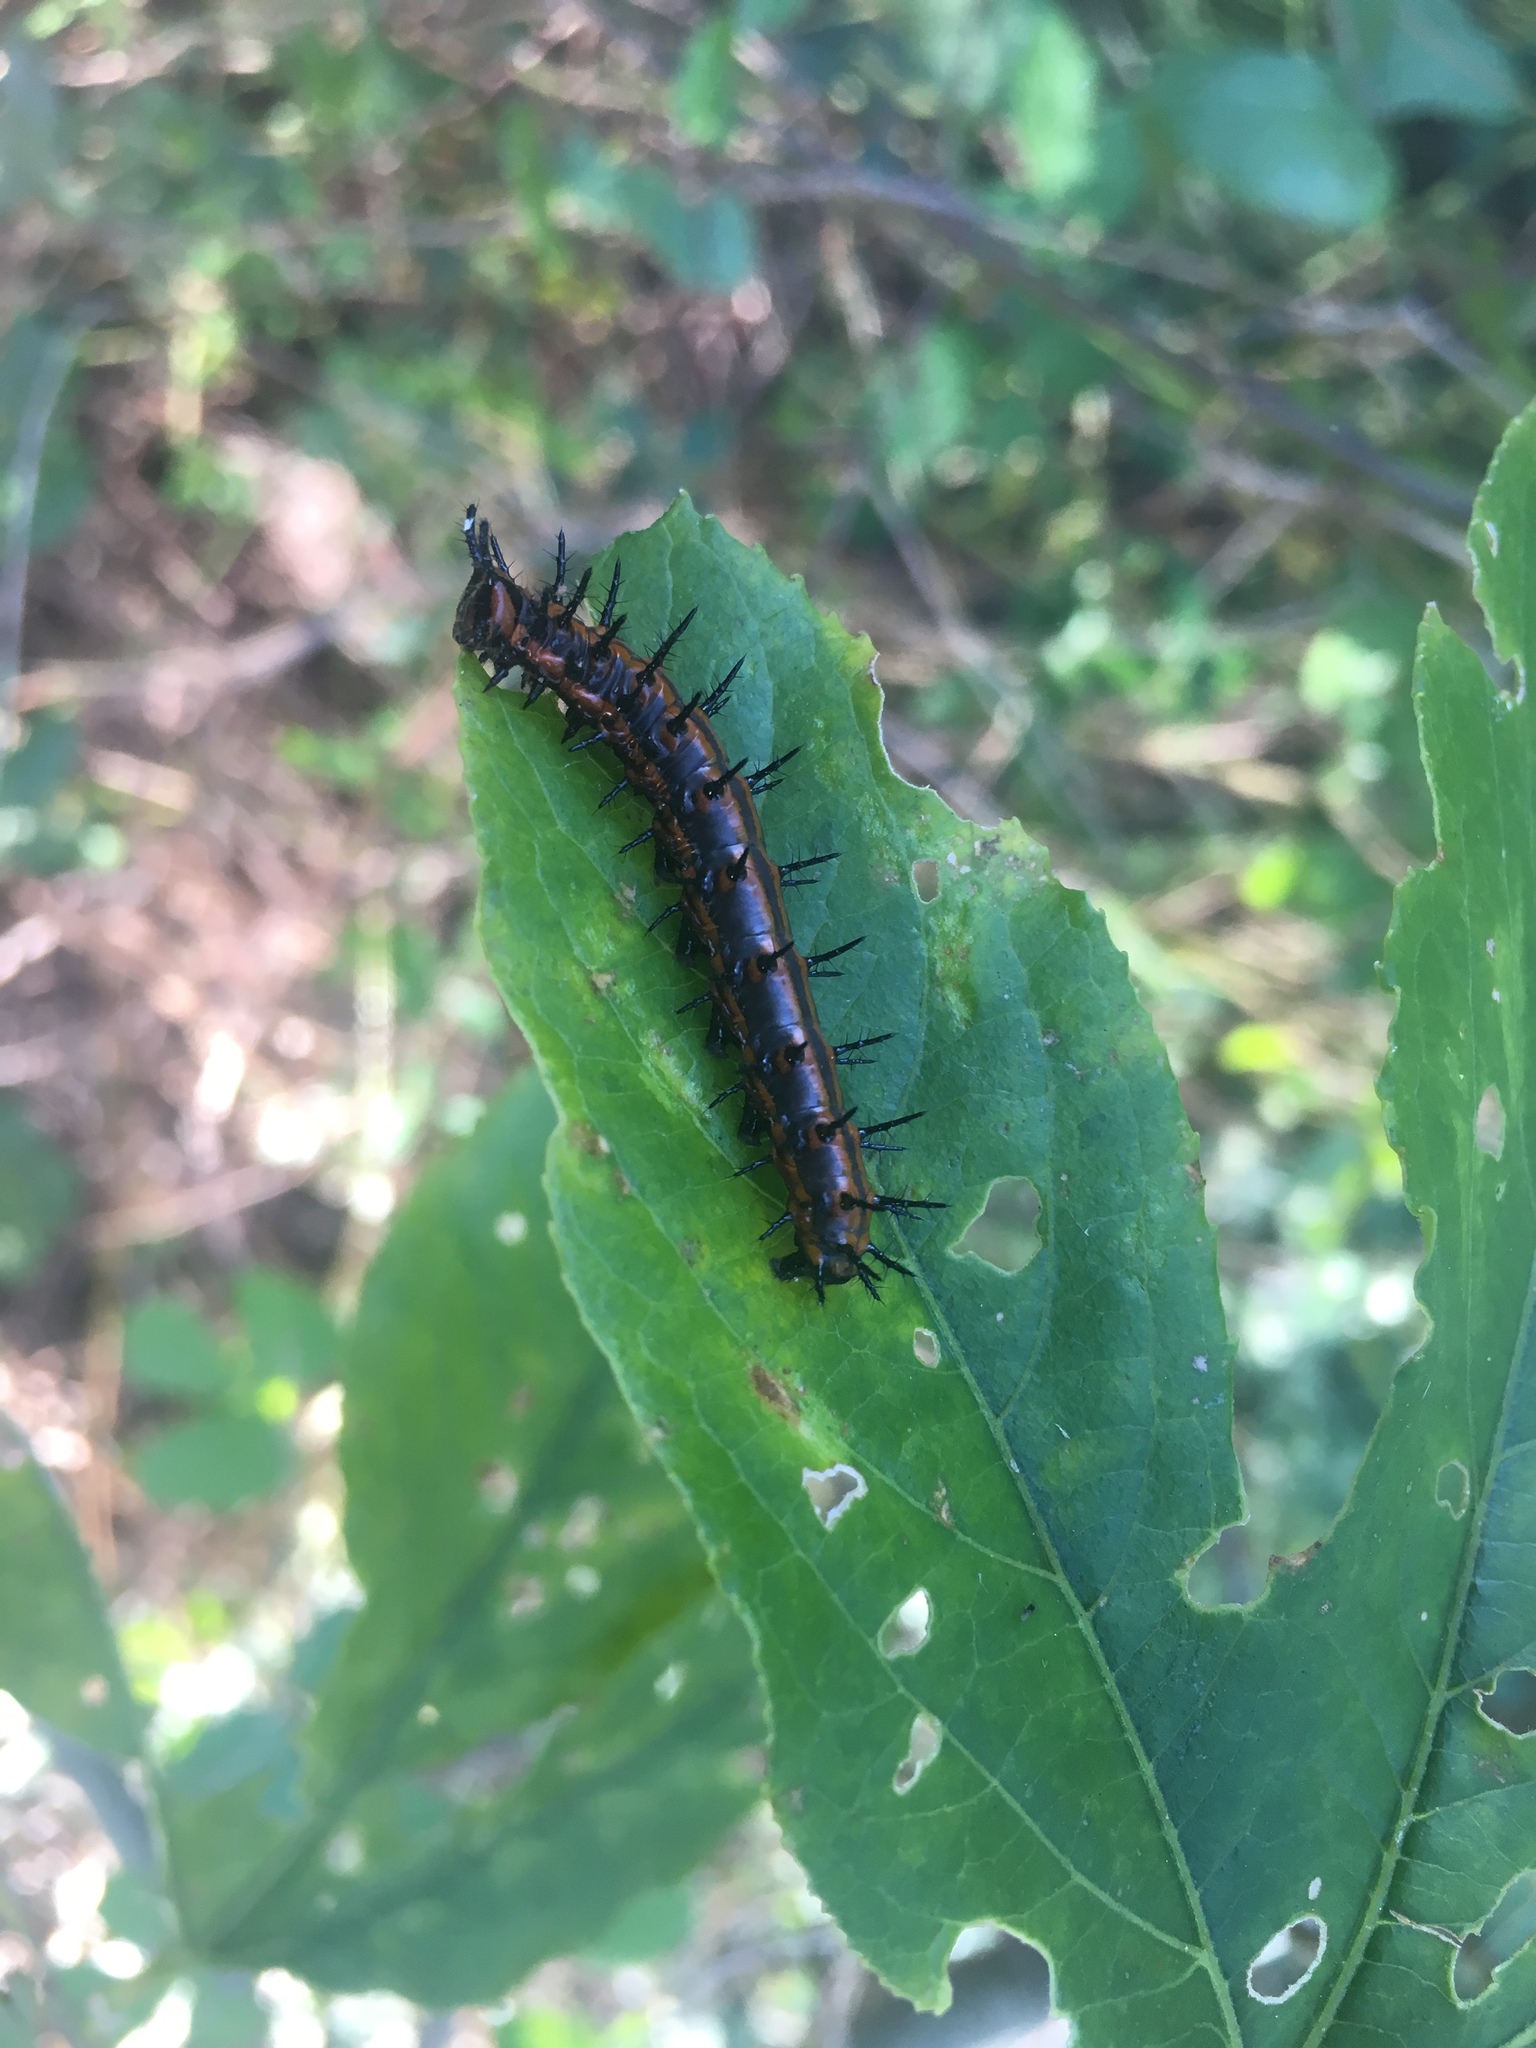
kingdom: Animalia
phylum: Arthropoda
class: Insecta
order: Lepidoptera
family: Nymphalidae
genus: Dione
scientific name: Dione vanillae
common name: Gulf fritillary
